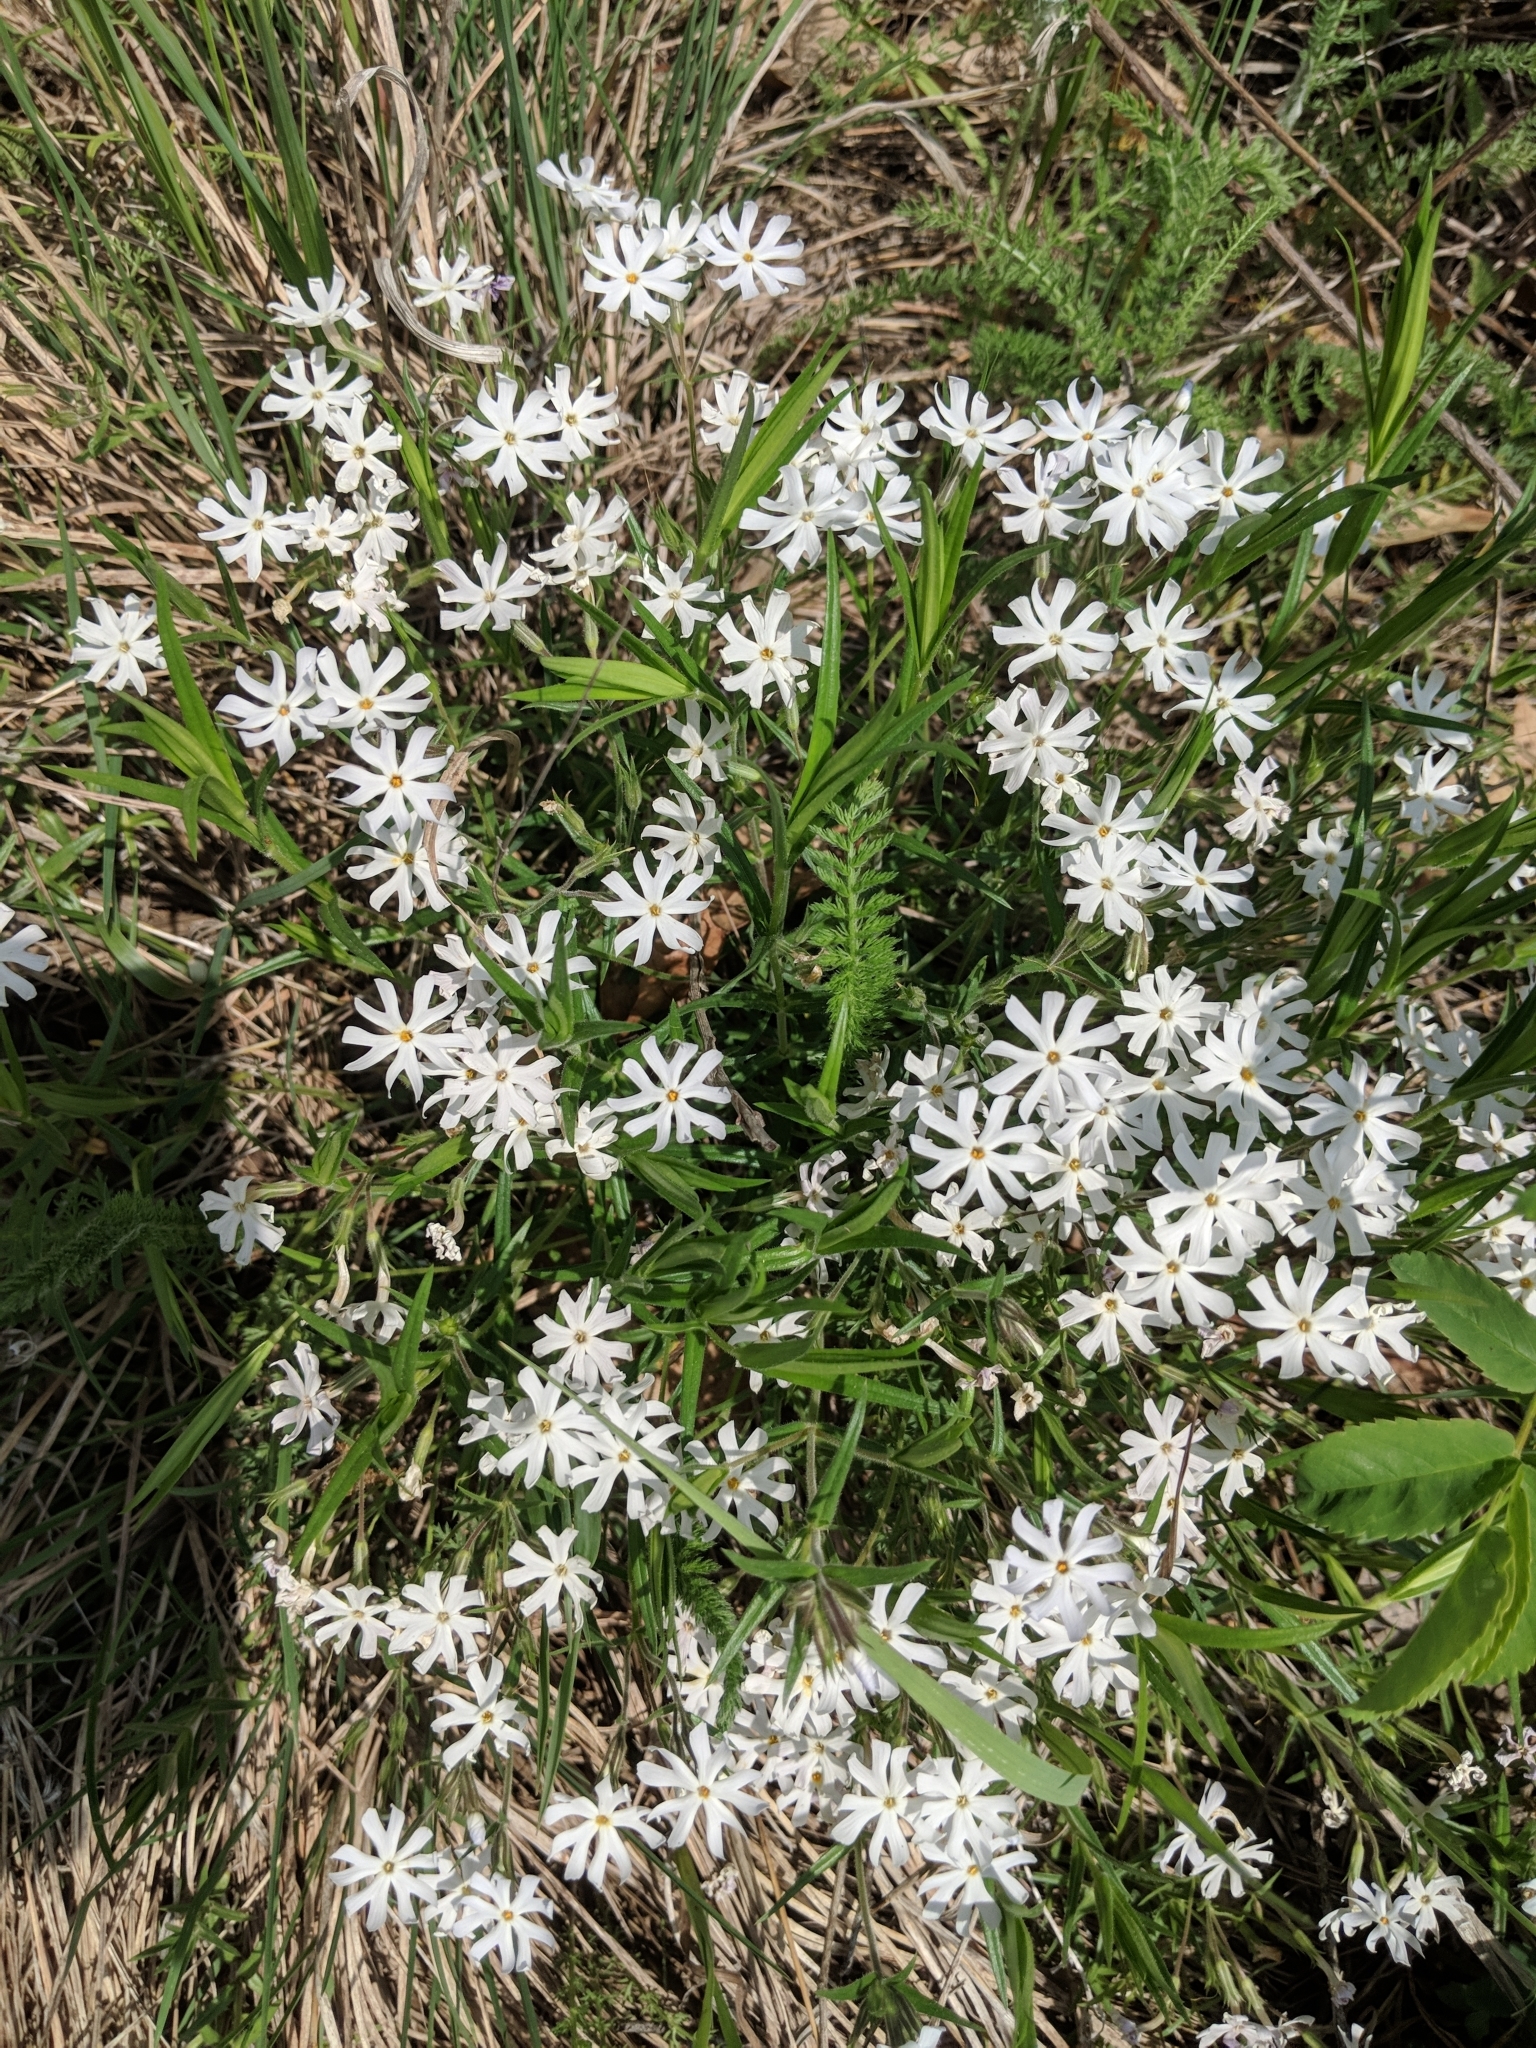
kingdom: Plantae
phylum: Tracheophyta
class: Magnoliopsida
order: Ericales
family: Polemoniaceae
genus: Phlox
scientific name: Phlox bifida
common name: Sand phlox
